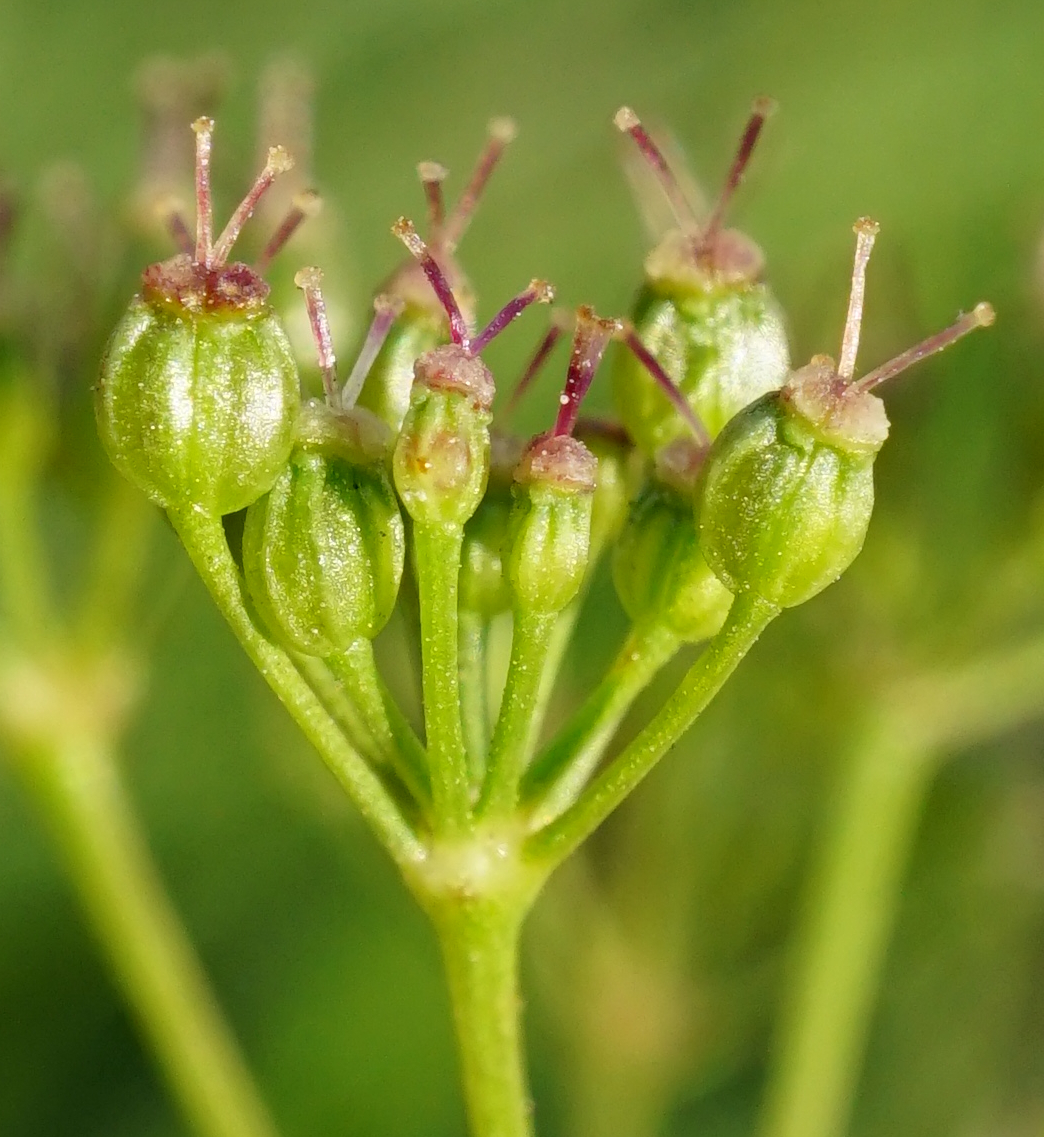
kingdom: Plantae
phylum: Tracheophyta
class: Magnoliopsida
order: Apiales
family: Apiaceae
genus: Pimpinella
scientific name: Pimpinella saxifraga
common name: Burnet-saxifrage
